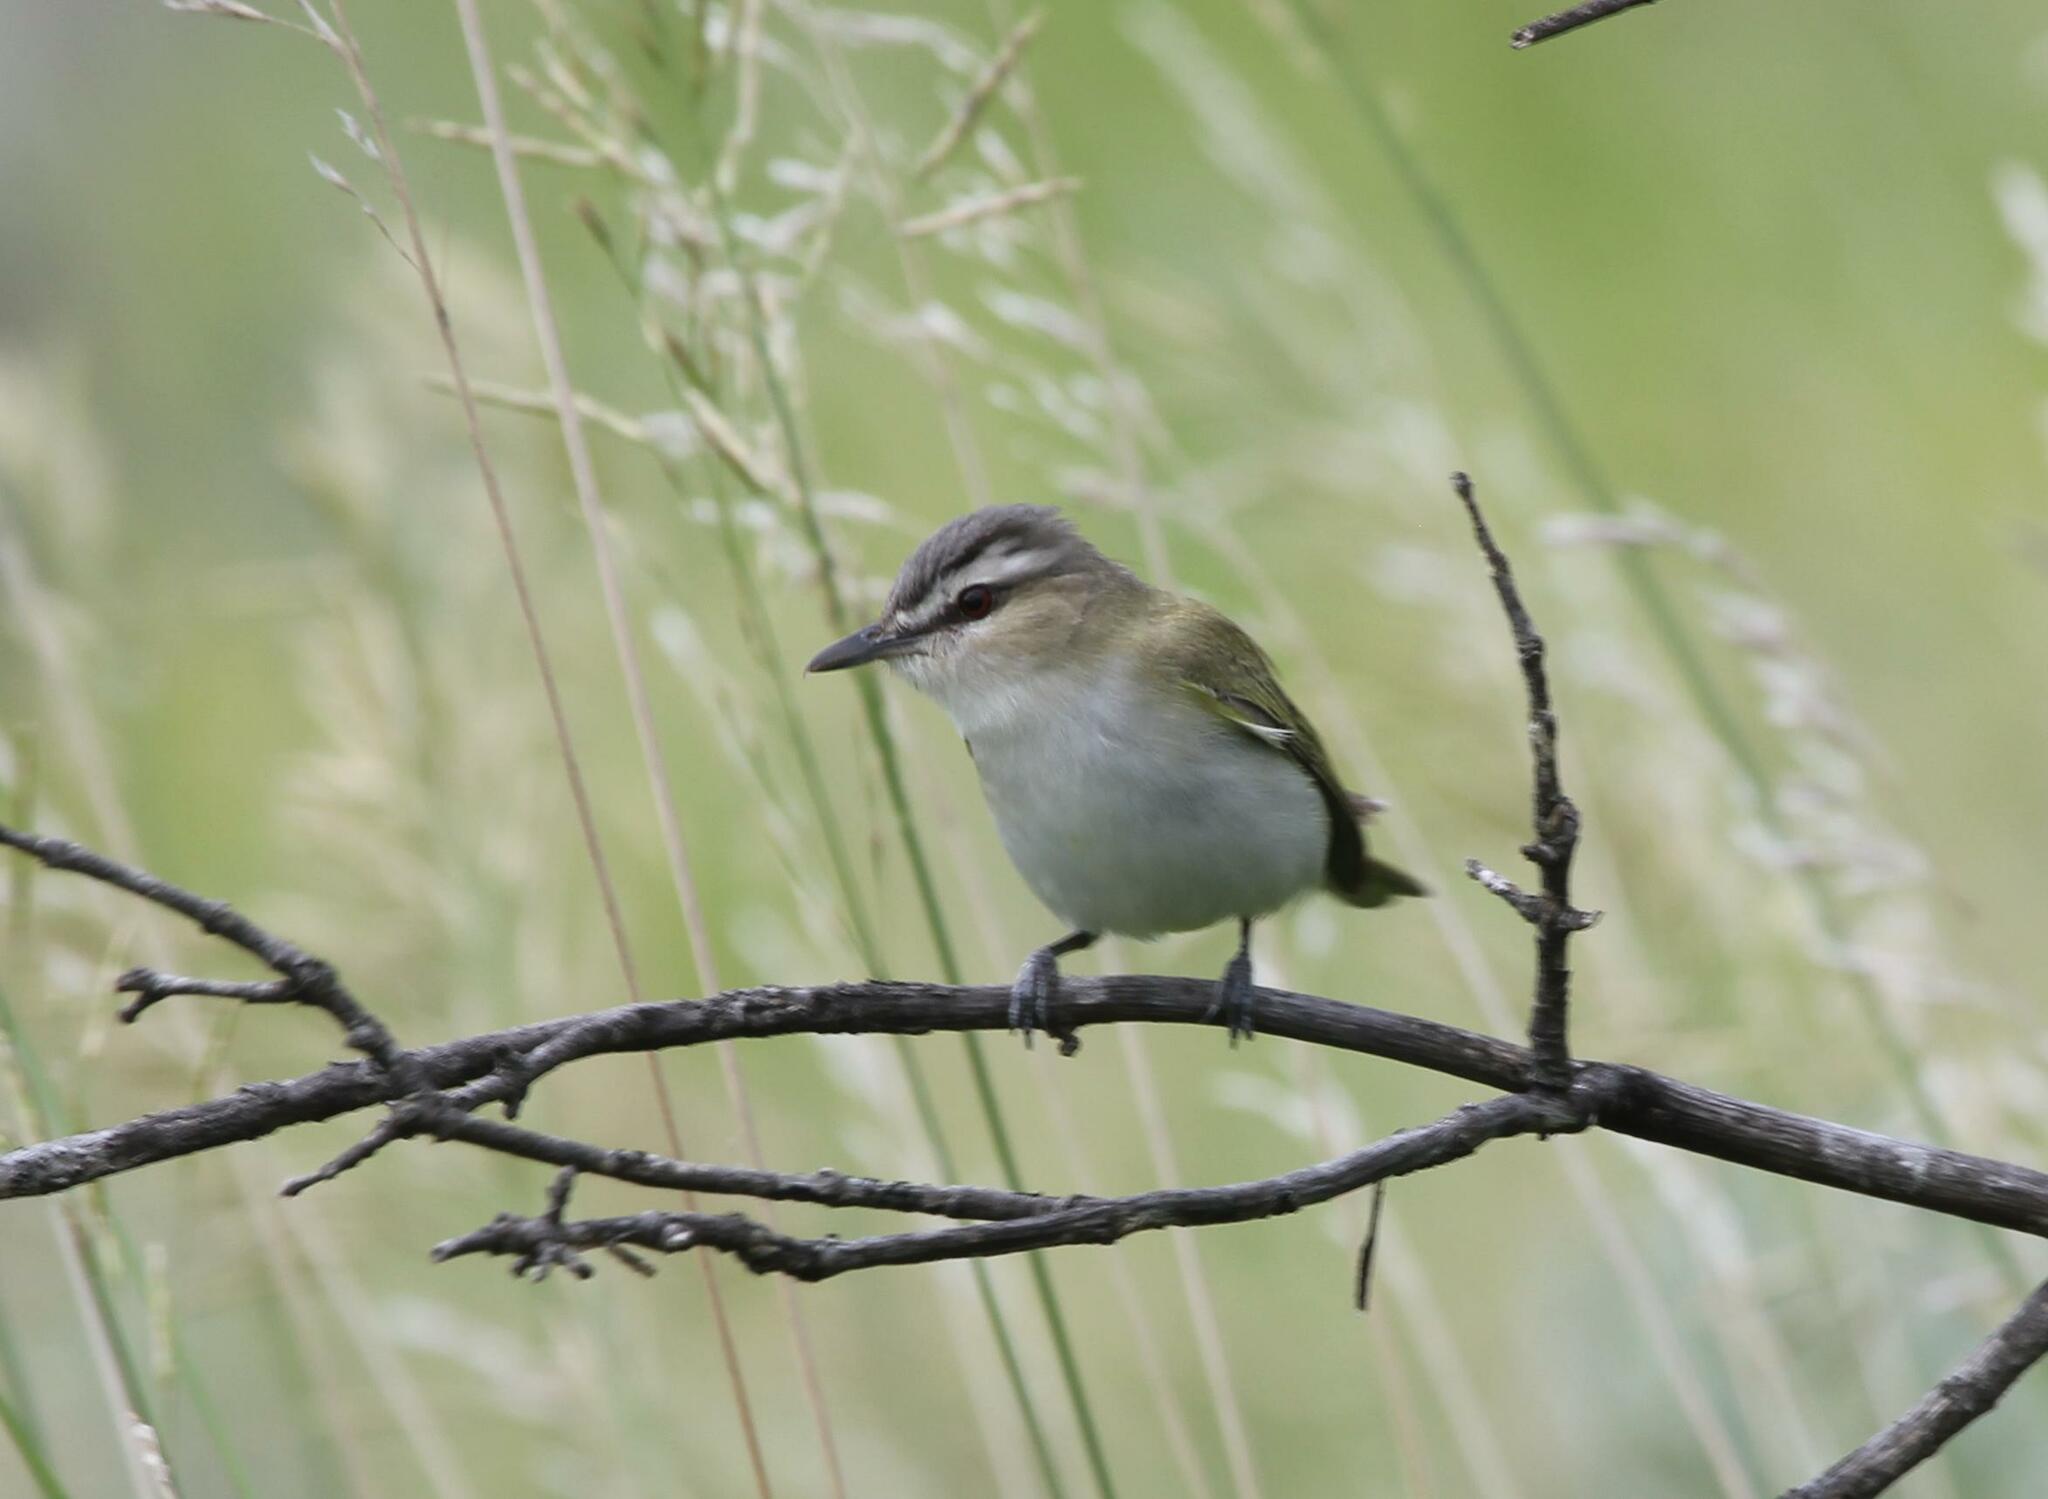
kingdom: Animalia
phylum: Chordata
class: Aves
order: Passeriformes
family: Vireonidae
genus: Vireo
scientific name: Vireo olivaceus
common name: Red-eyed vireo
